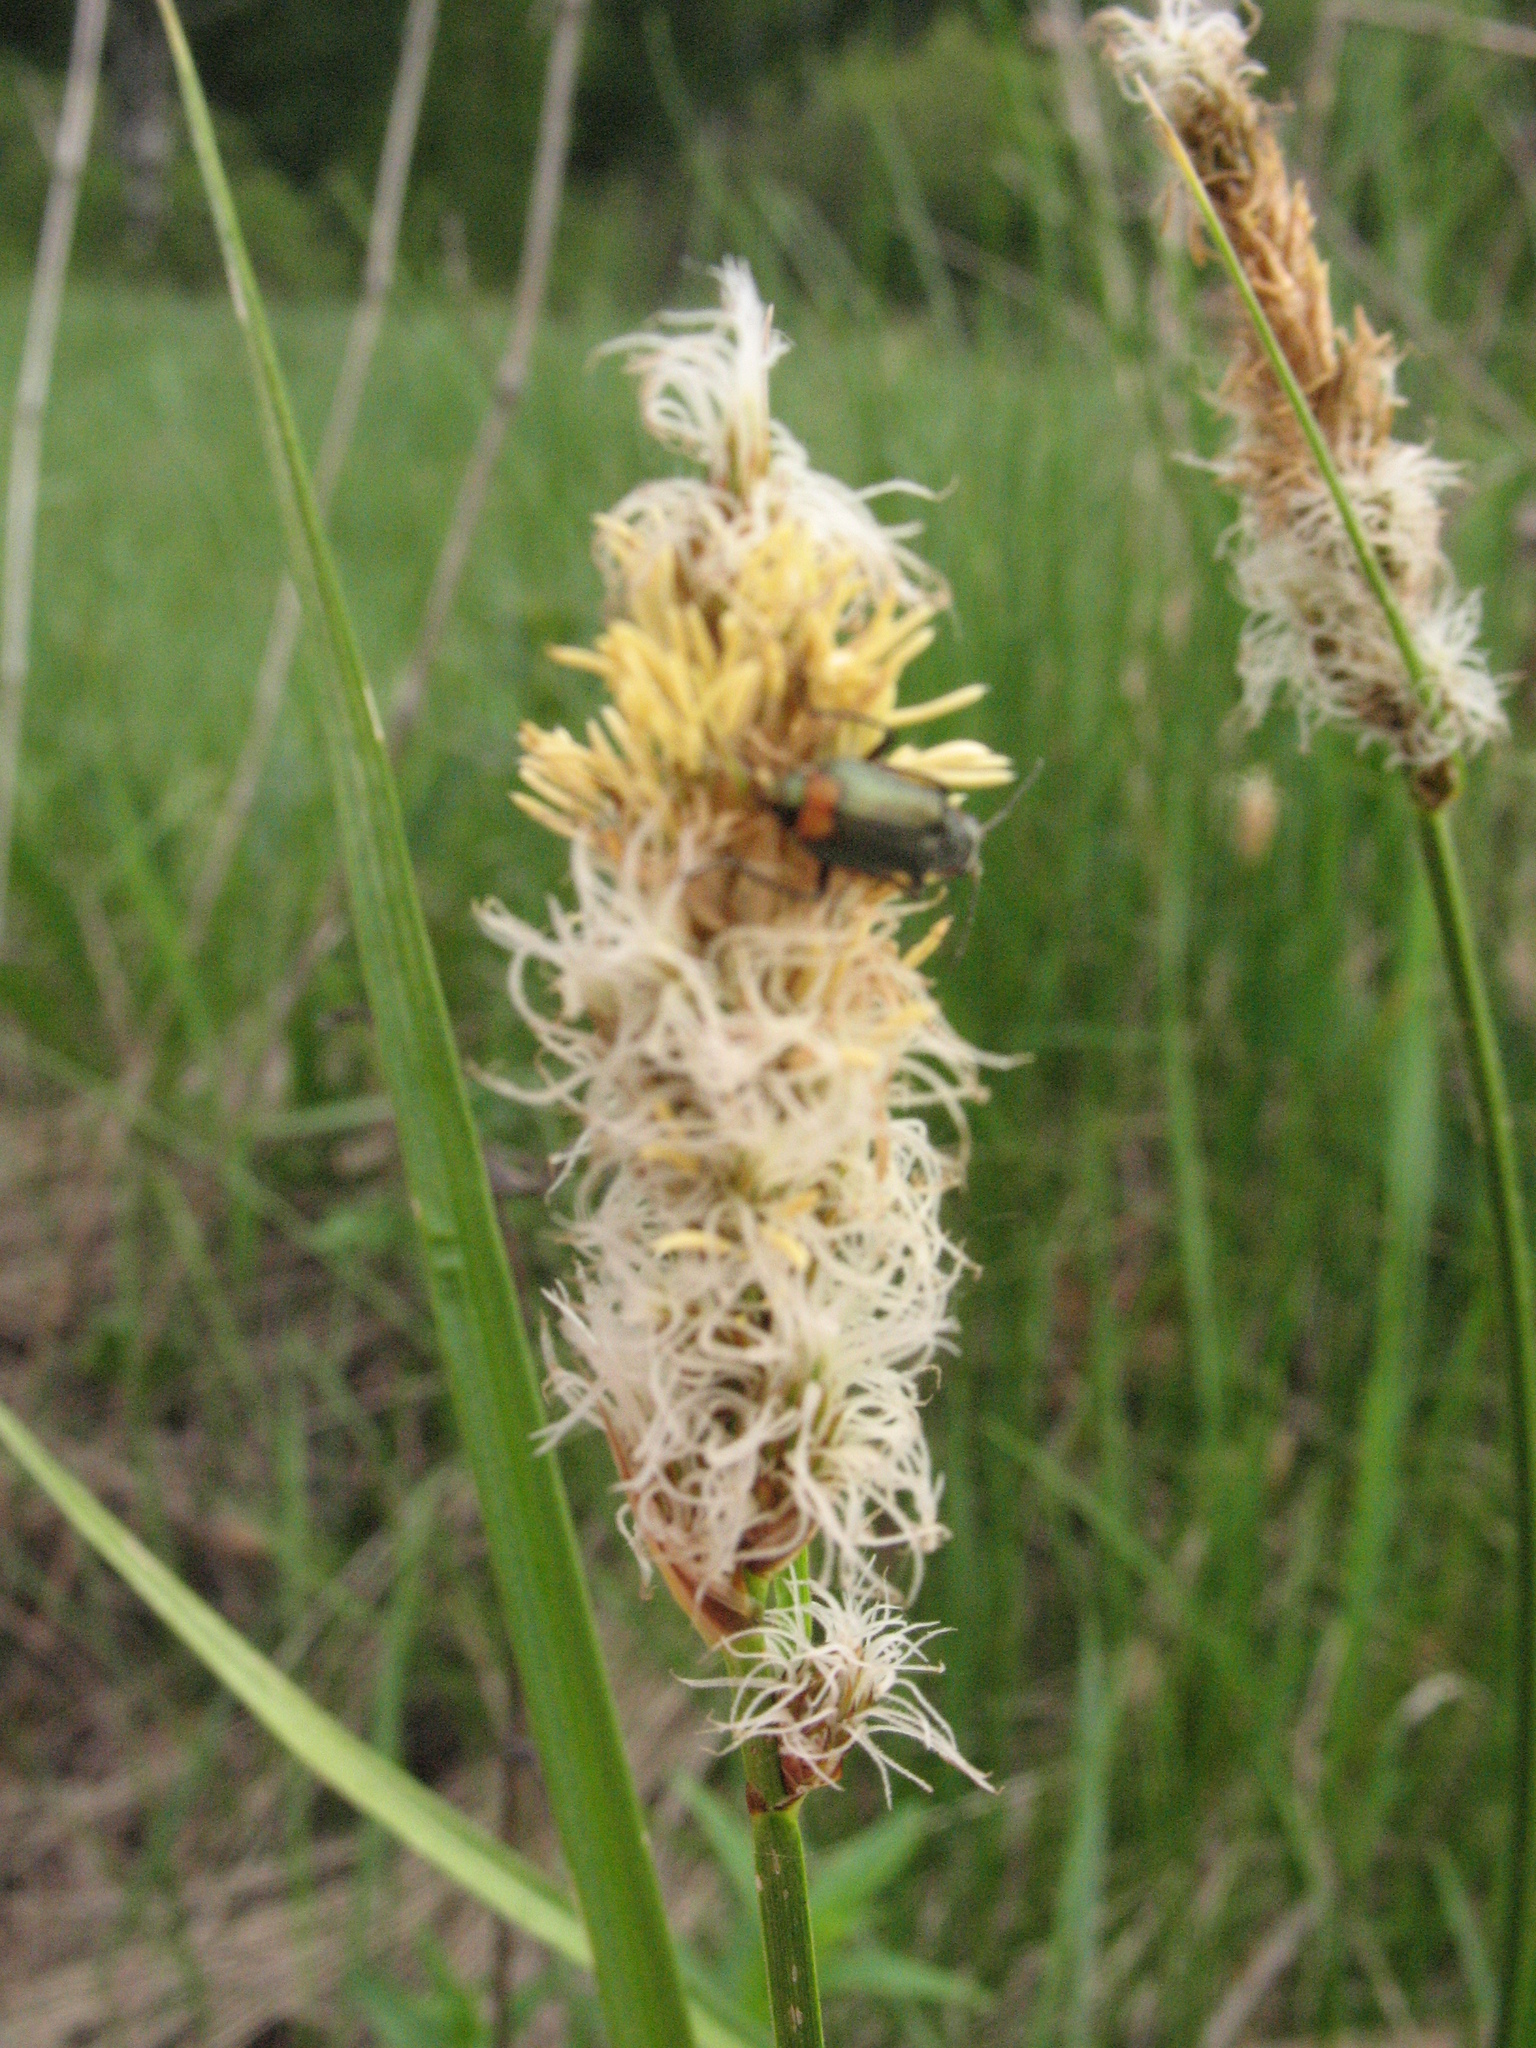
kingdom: Plantae
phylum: Tracheophyta
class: Liliopsida
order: Poales
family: Cyperaceae
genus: Carex
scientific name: Carex disticha
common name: Brown sedge
